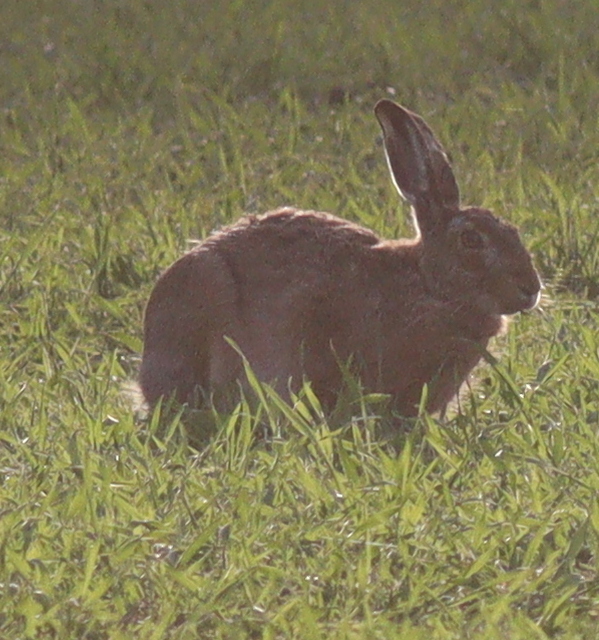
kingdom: Animalia
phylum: Chordata
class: Mammalia
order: Lagomorpha
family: Leporidae
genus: Lepus
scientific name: Lepus europaeus
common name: European hare
